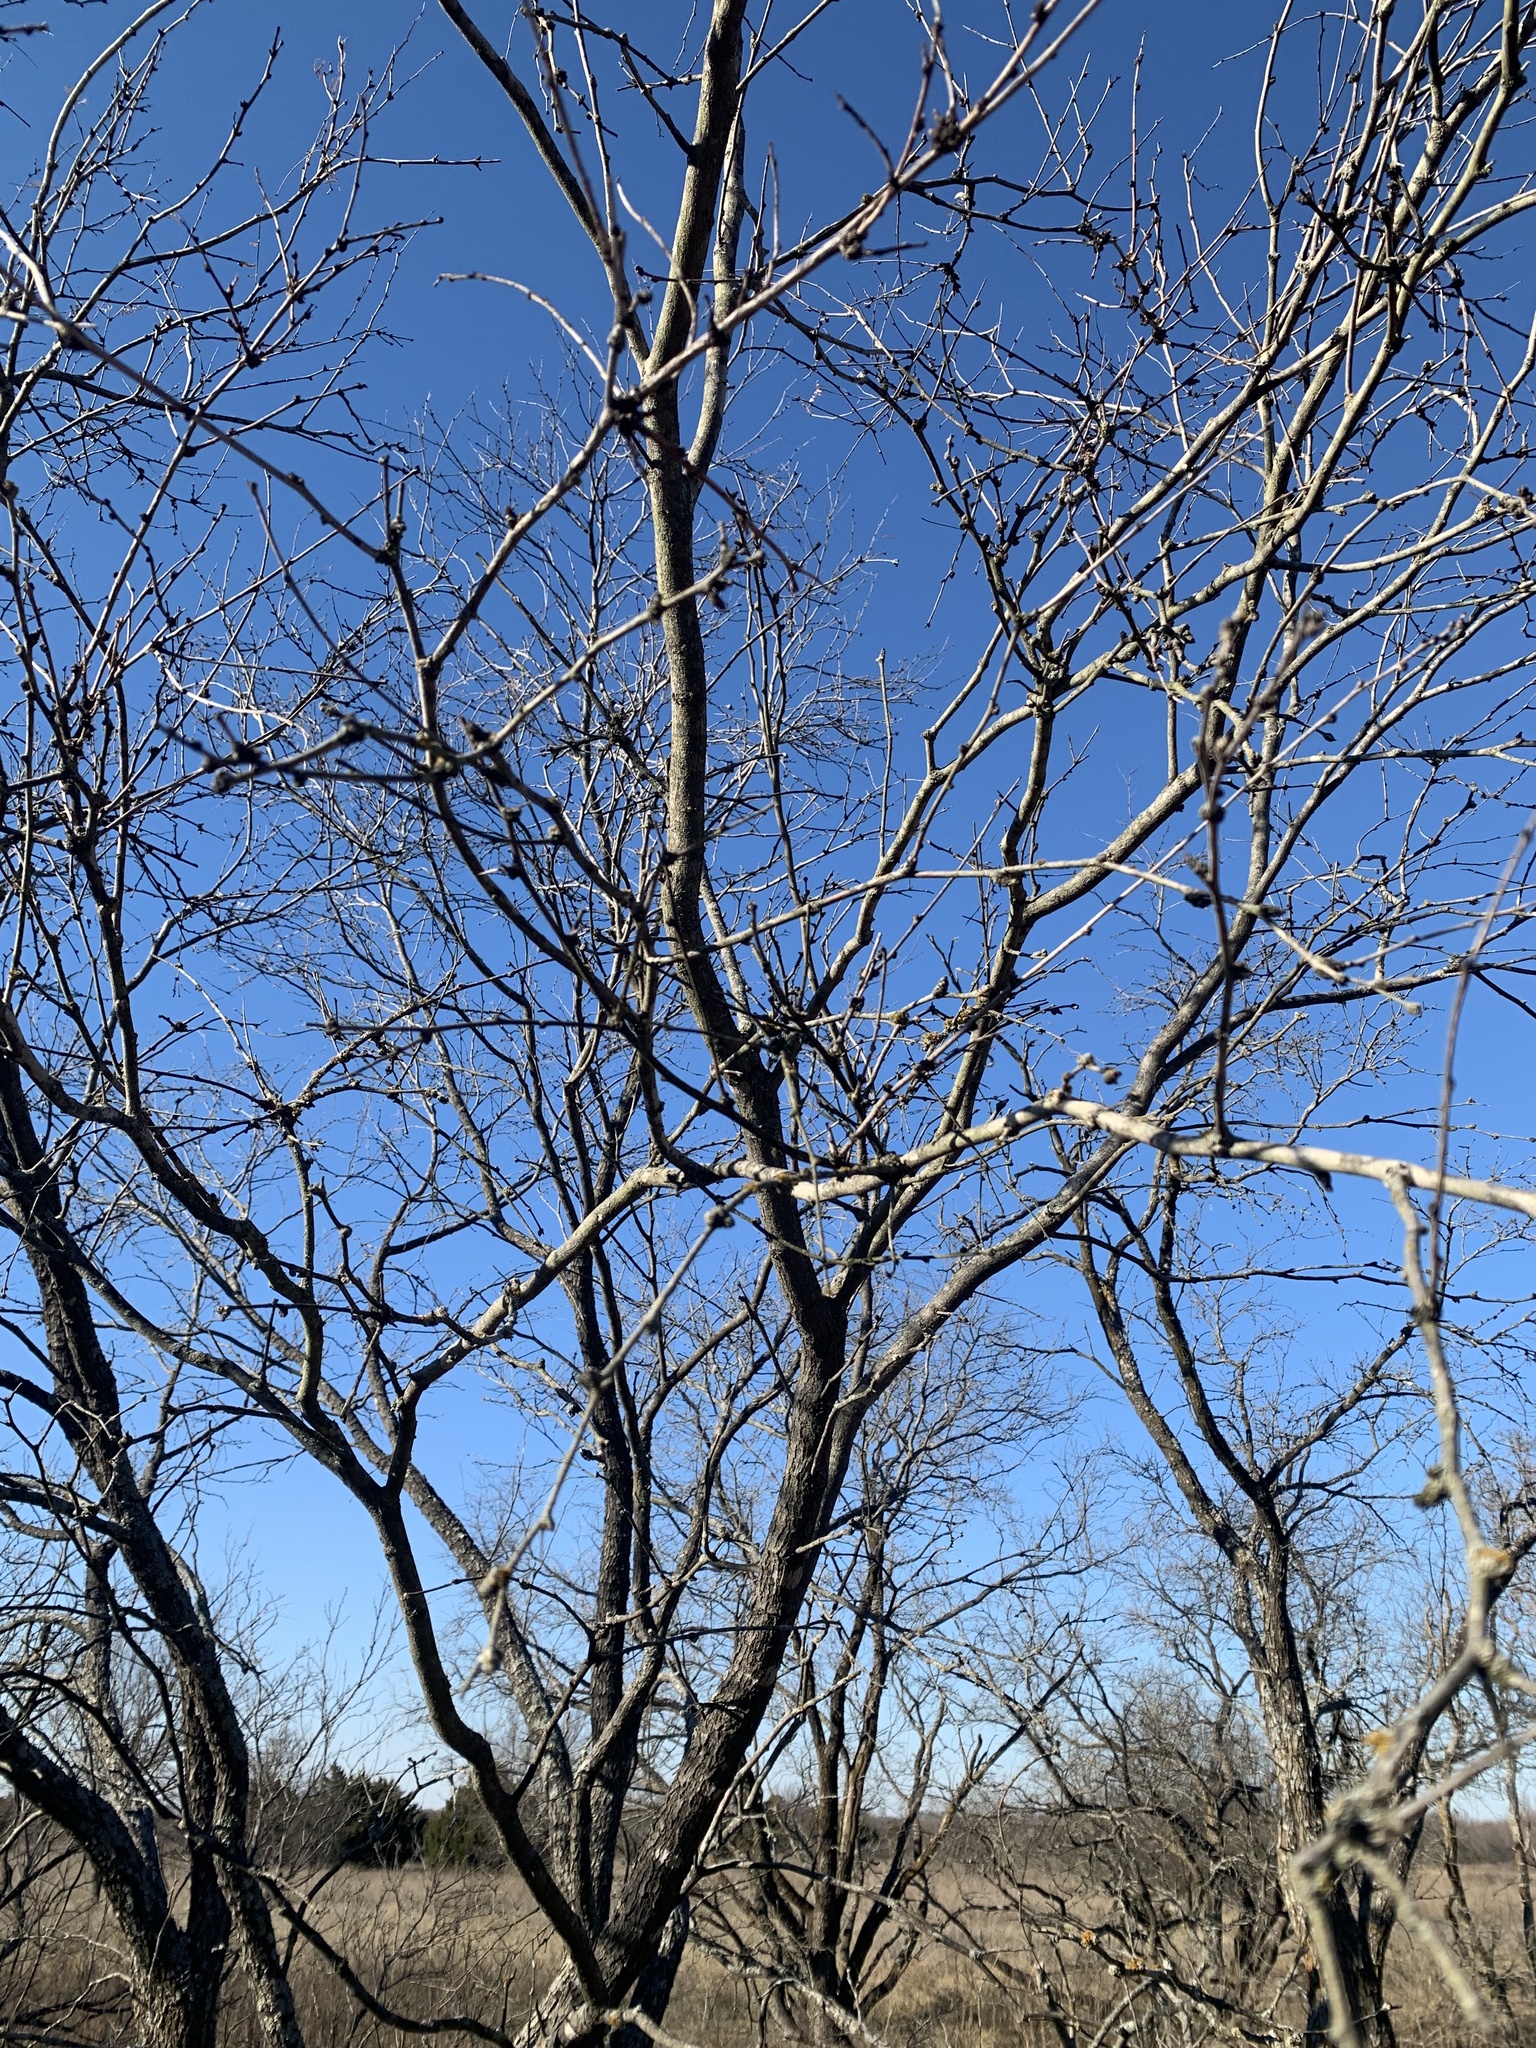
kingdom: Plantae
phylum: Tracheophyta
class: Magnoliopsida
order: Fabales
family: Fabaceae
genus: Prosopis
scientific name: Prosopis glandulosa
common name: Honey mesquite
